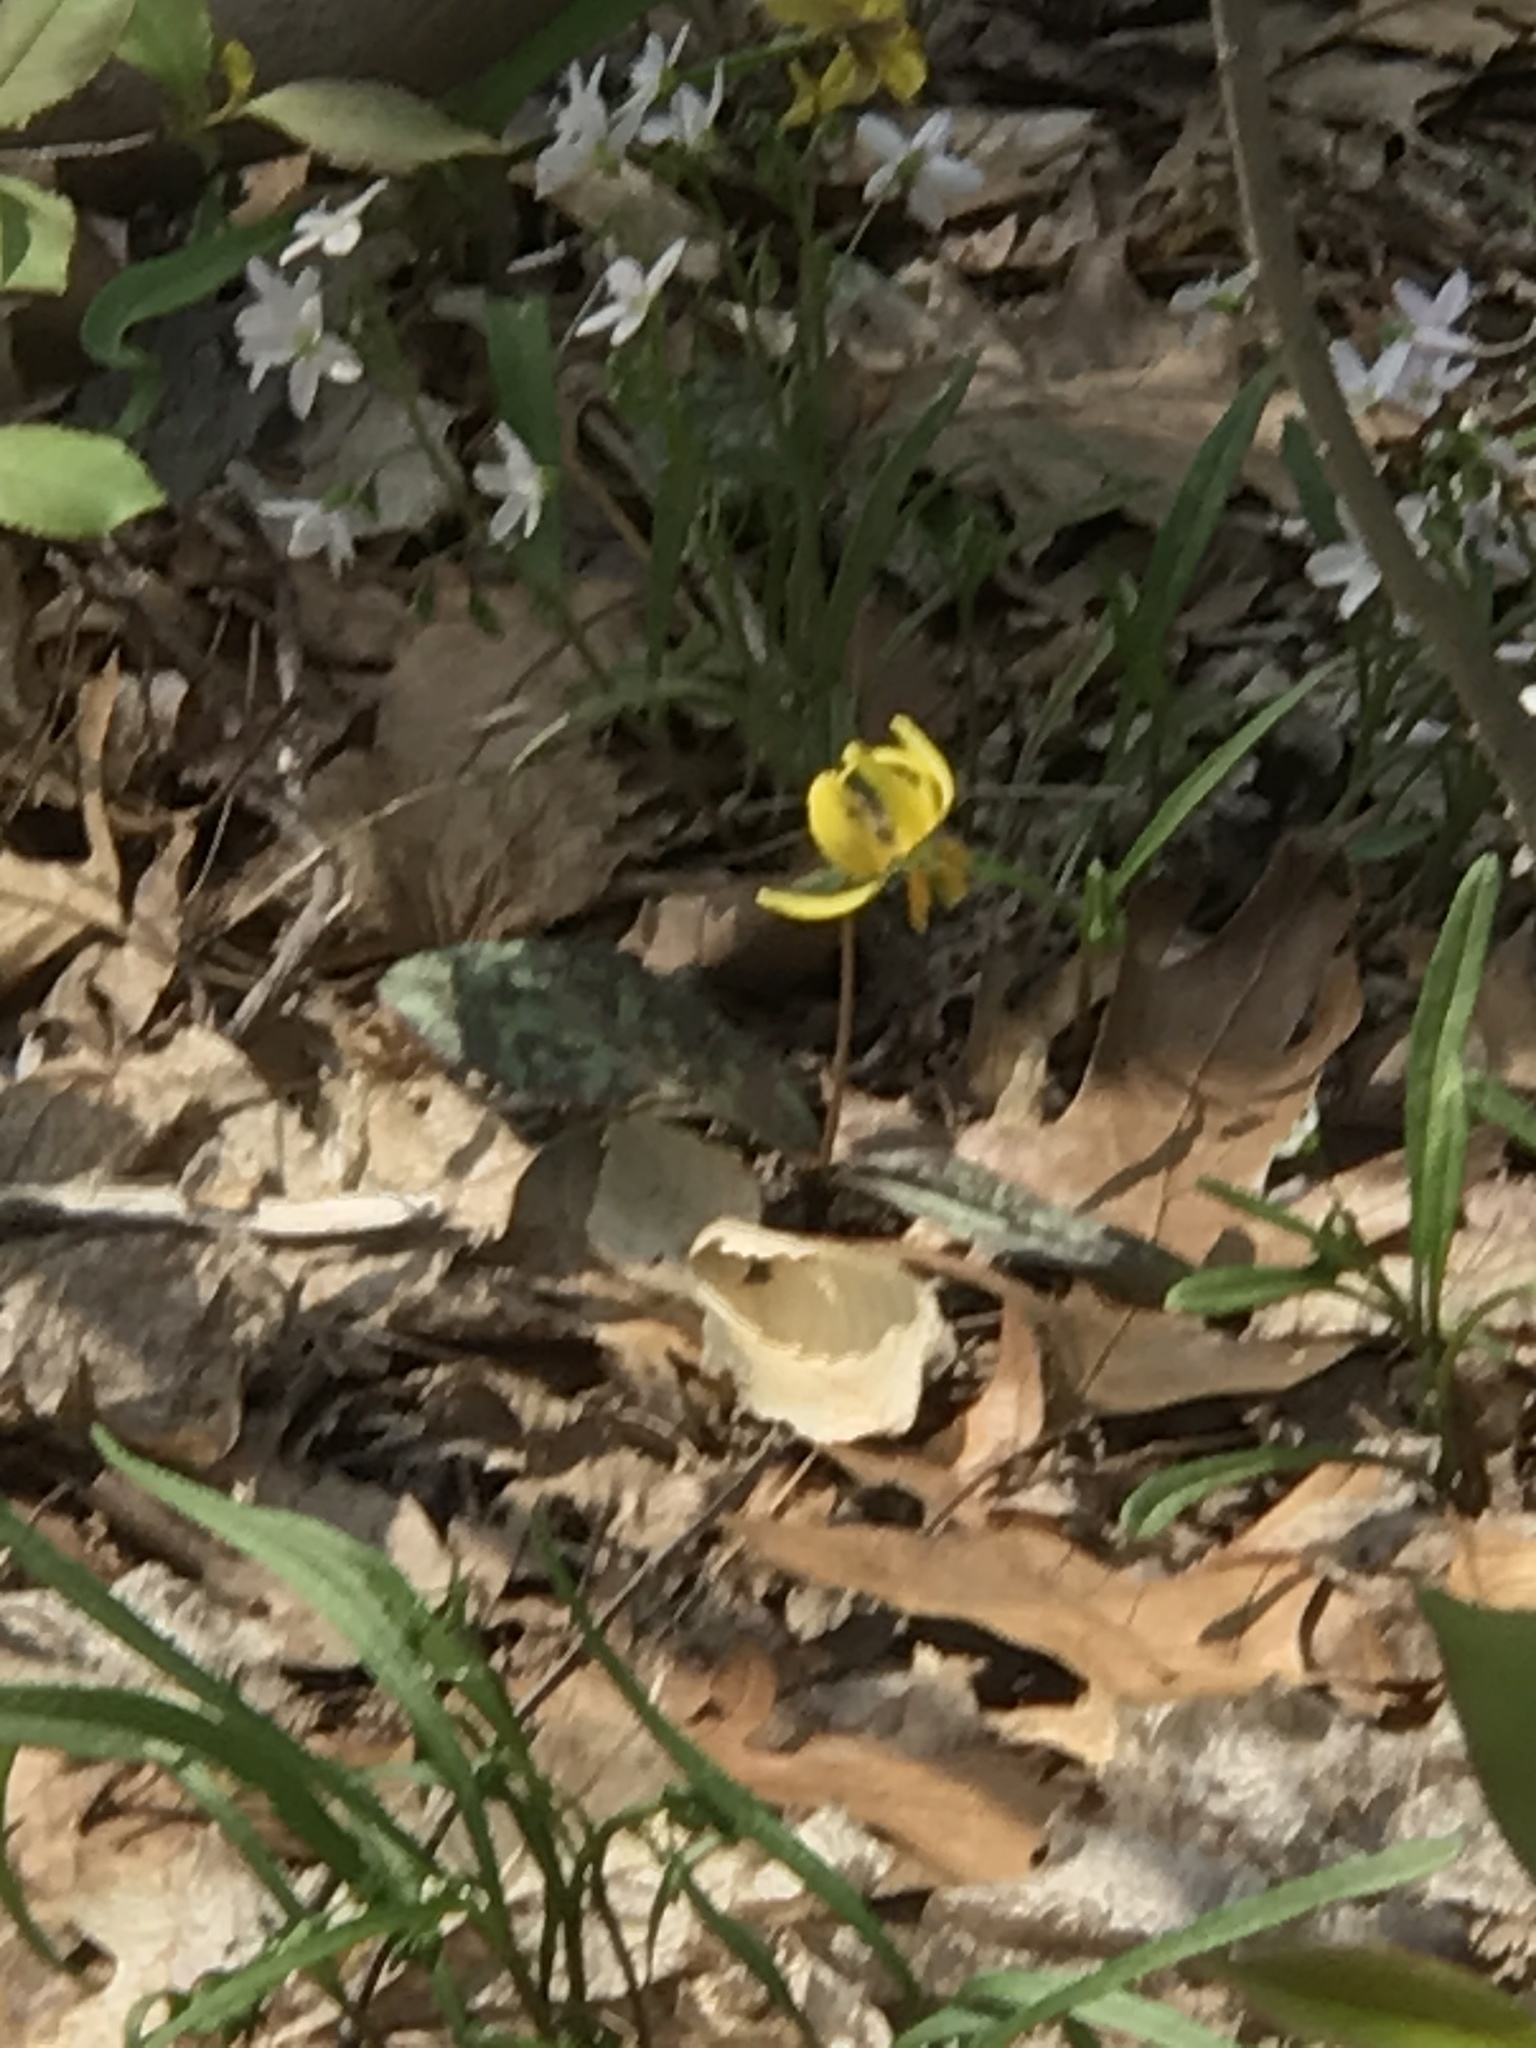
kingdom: Plantae
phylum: Tracheophyta
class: Liliopsida
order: Liliales
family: Liliaceae
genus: Erythronium
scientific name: Erythronium americanum
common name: Yellow adder's-tongue
